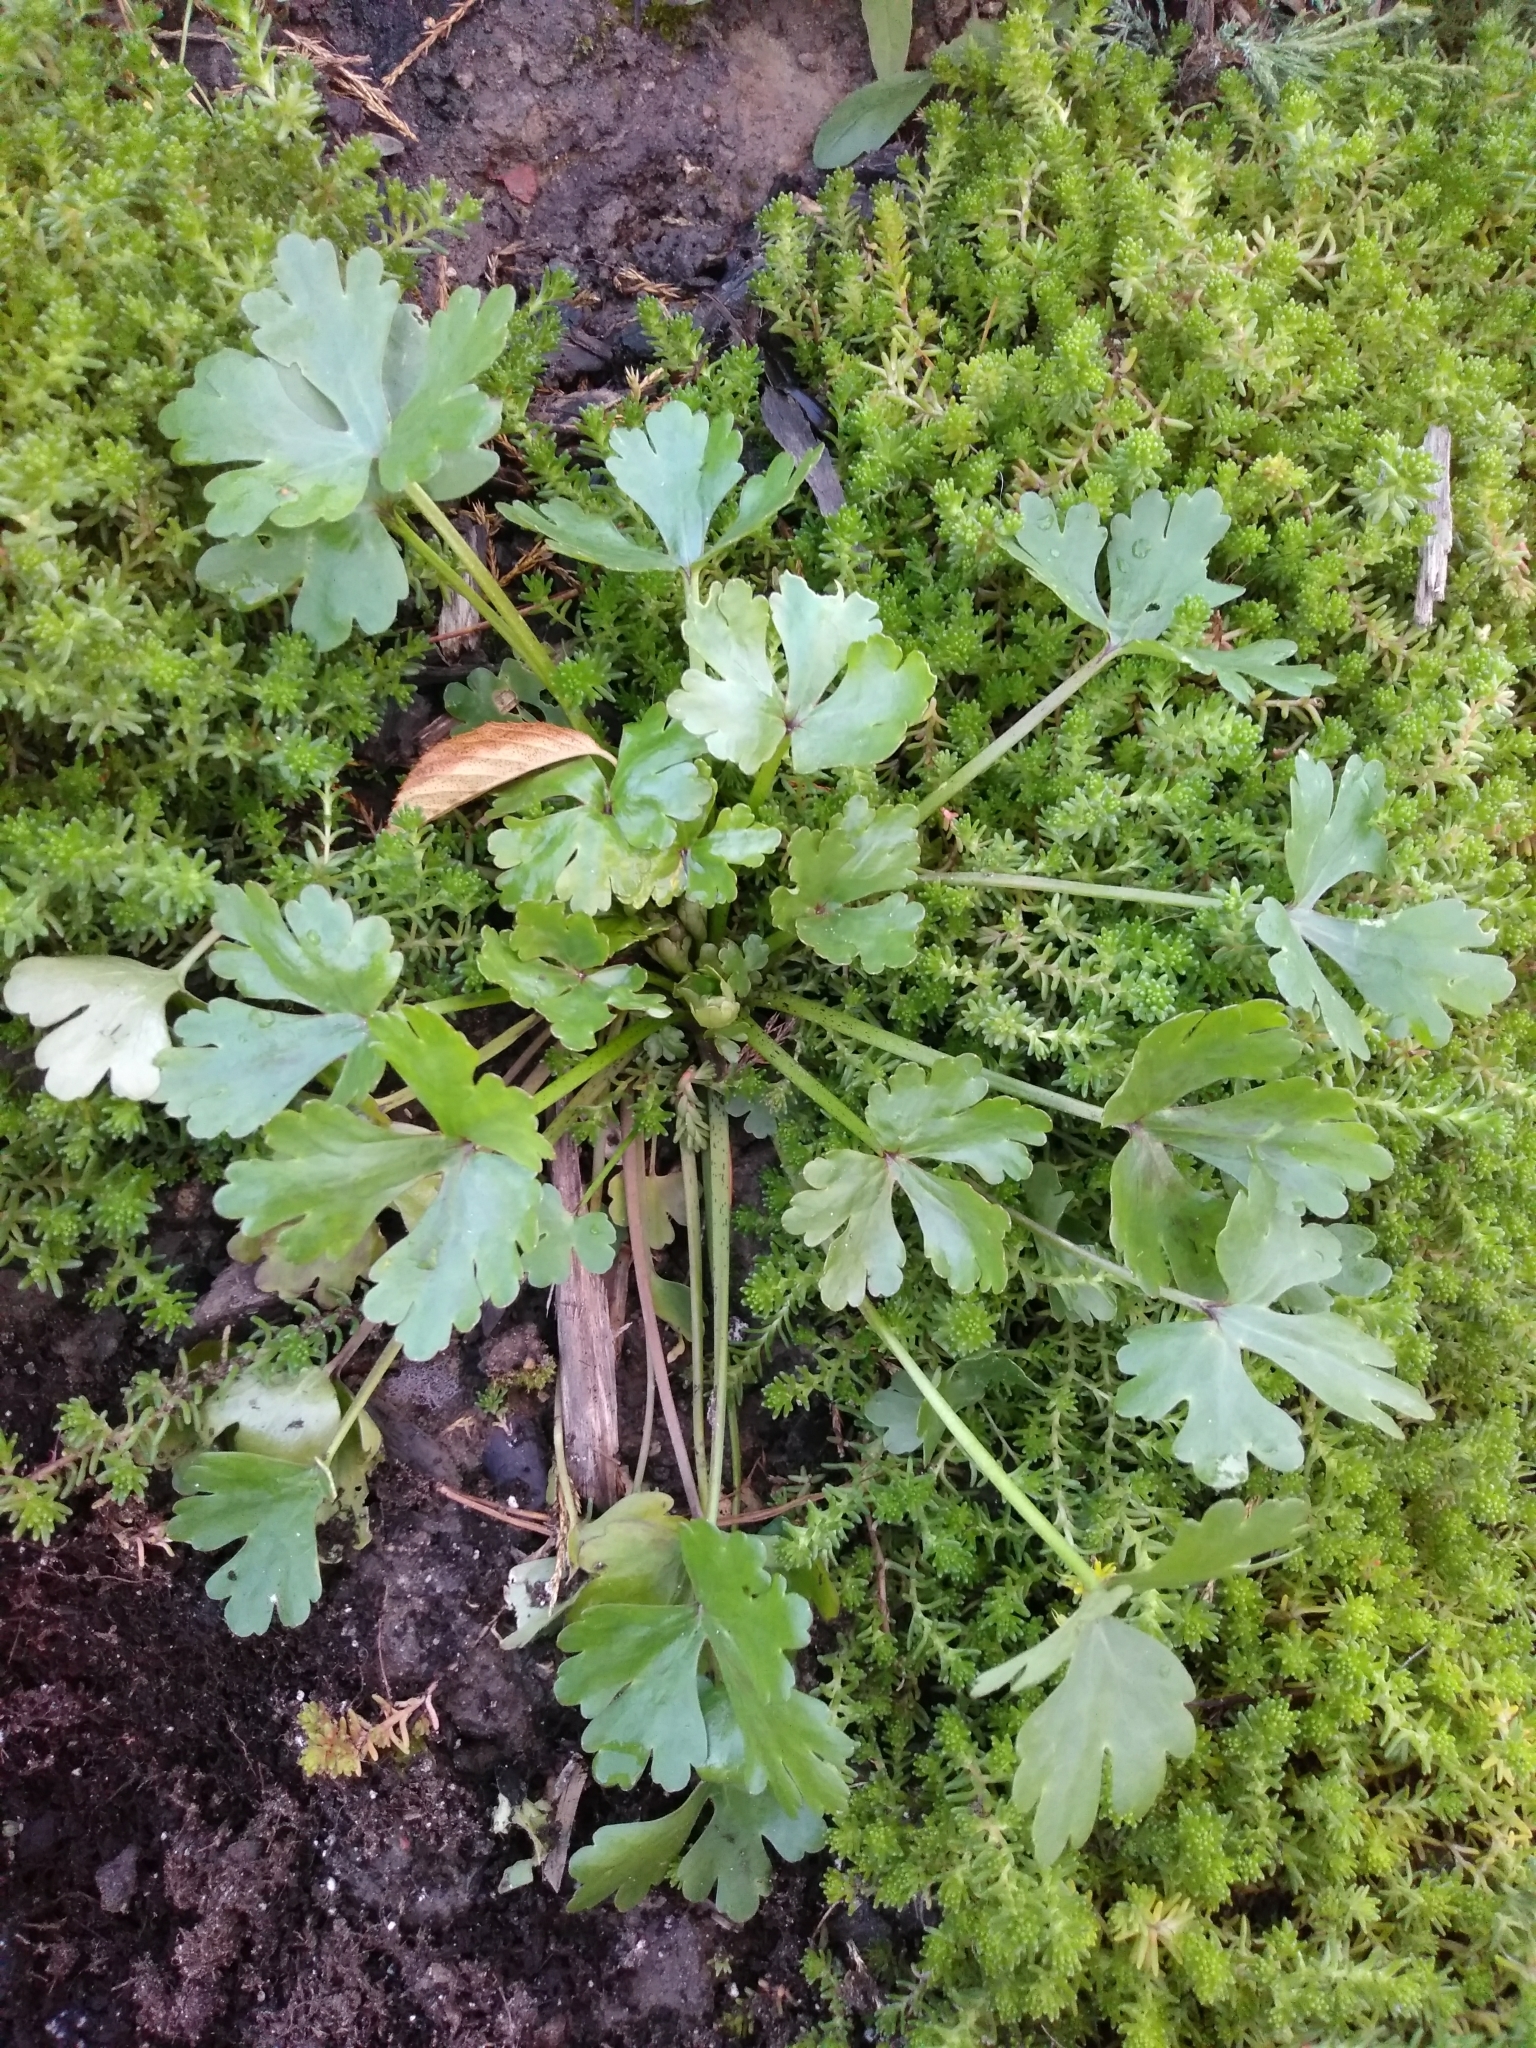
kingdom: Plantae
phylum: Tracheophyta
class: Magnoliopsida
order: Ranunculales
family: Ranunculaceae
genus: Ranunculus
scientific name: Ranunculus sceleratus
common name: Celery-leaved buttercup
